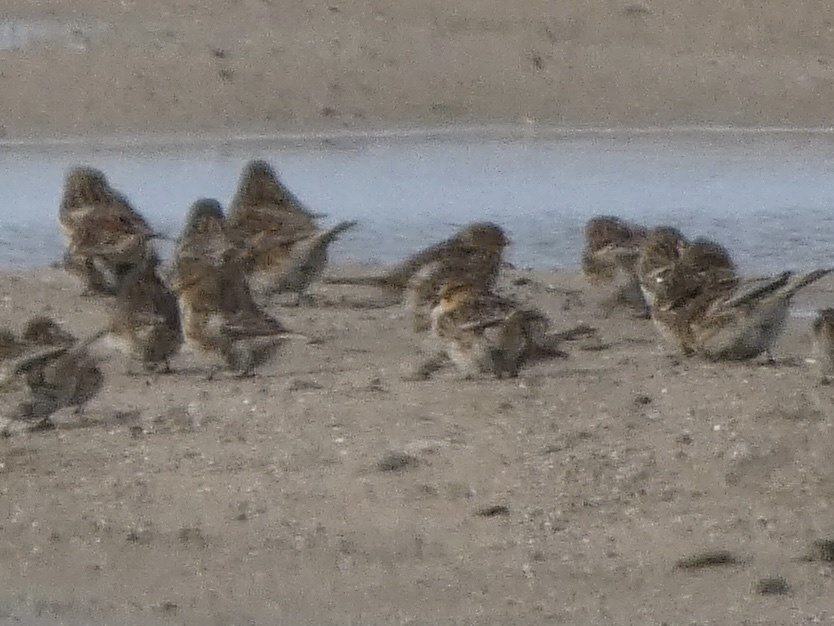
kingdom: Animalia
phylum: Chordata
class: Aves
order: Passeriformes
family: Fringillidae
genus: Linaria
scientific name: Linaria flavirostris
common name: Twite
